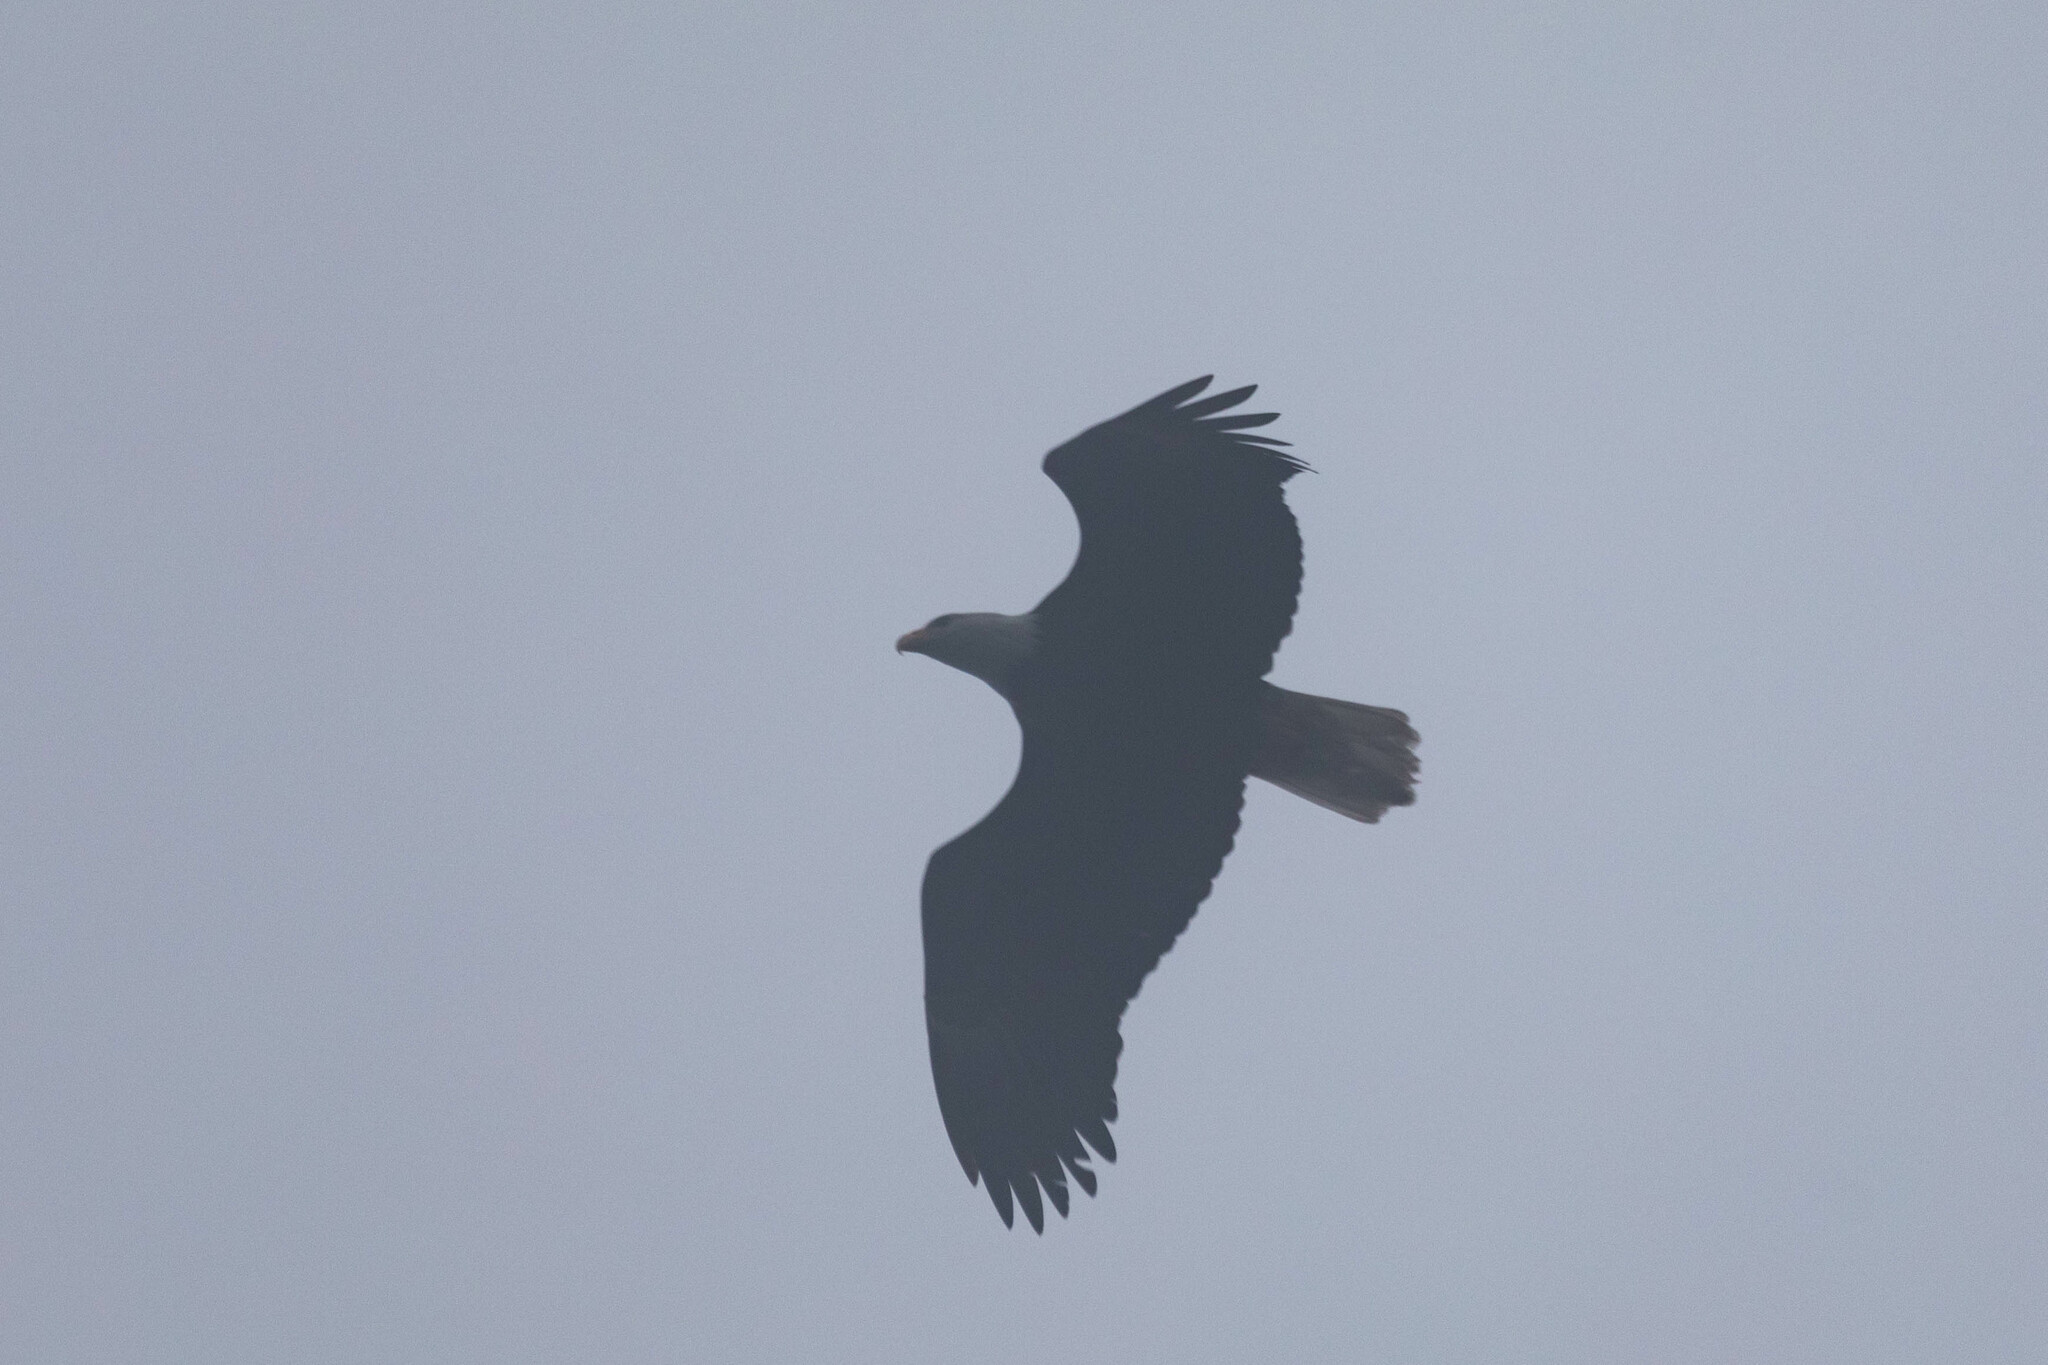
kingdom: Animalia
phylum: Chordata
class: Aves
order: Accipitriformes
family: Accipitridae
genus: Haliaeetus
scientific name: Haliaeetus leucocephalus
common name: Bald eagle
